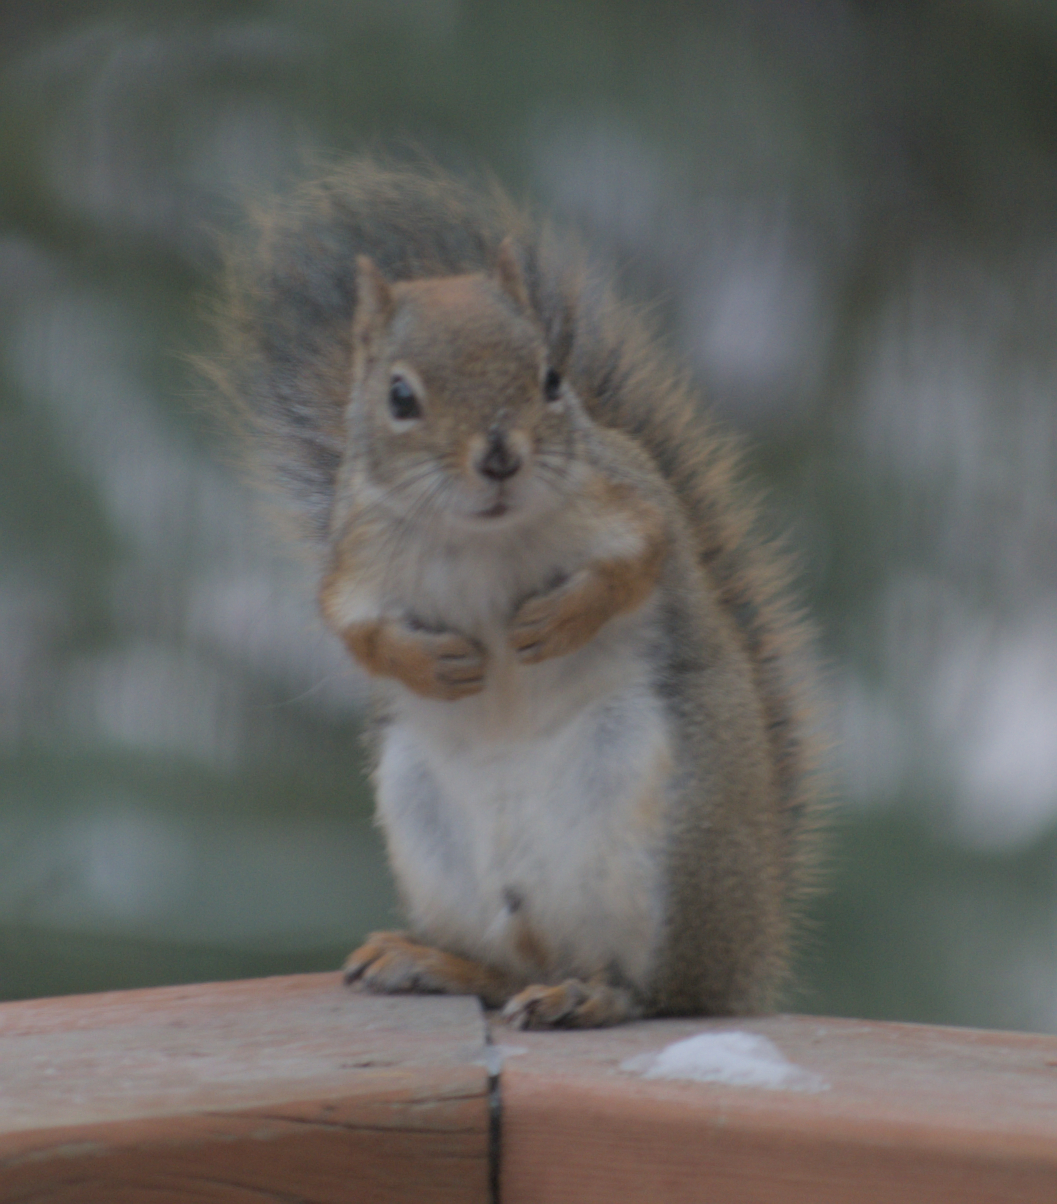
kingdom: Animalia
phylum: Chordata
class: Mammalia
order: Rodentia
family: Sciuridae
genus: Tamiasciurus
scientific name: Tamiasciurus hudsonicus
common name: Red squirrel
